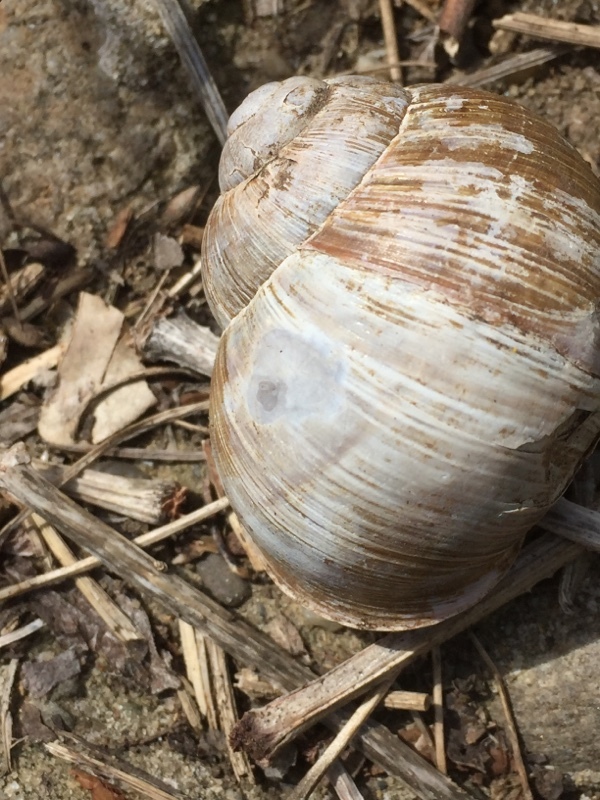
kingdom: Animalia
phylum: Mollusca
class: Gastropoda
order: Stylommatophora
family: Helicidae
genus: Helix
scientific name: Helix pomatia
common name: Roman snail
